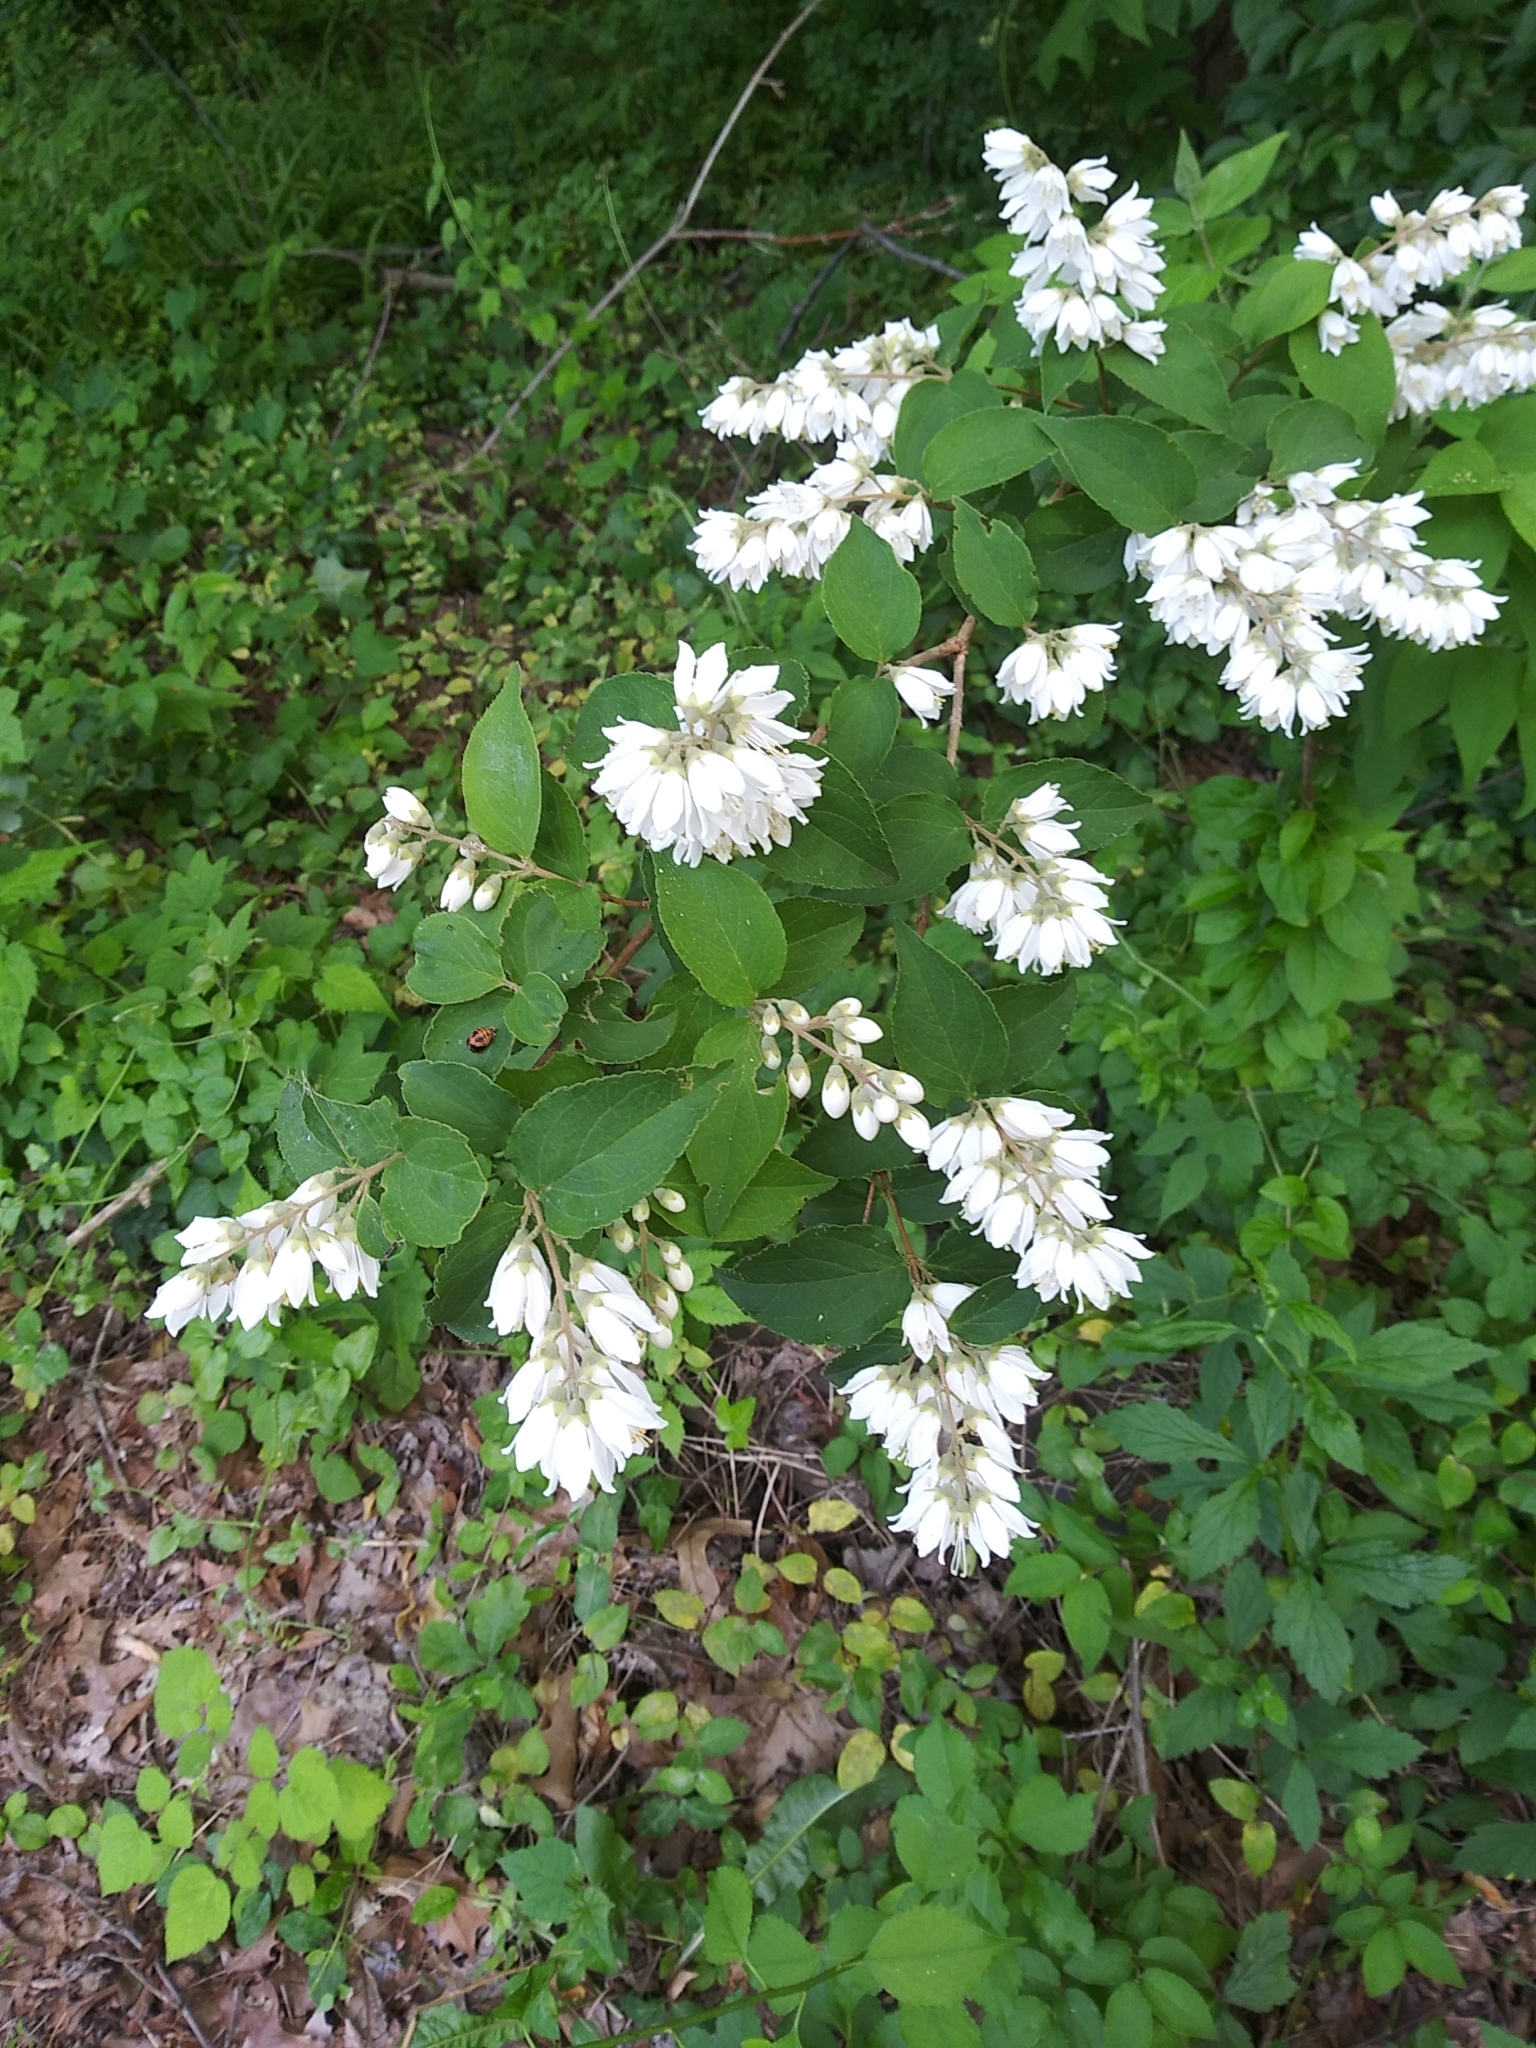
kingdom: Plantae
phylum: Tracheophyta
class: Magnoliopsida
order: Cornales
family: Hydrangeaceae
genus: Deutzia
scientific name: Deutzia crenata
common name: Deutzia
